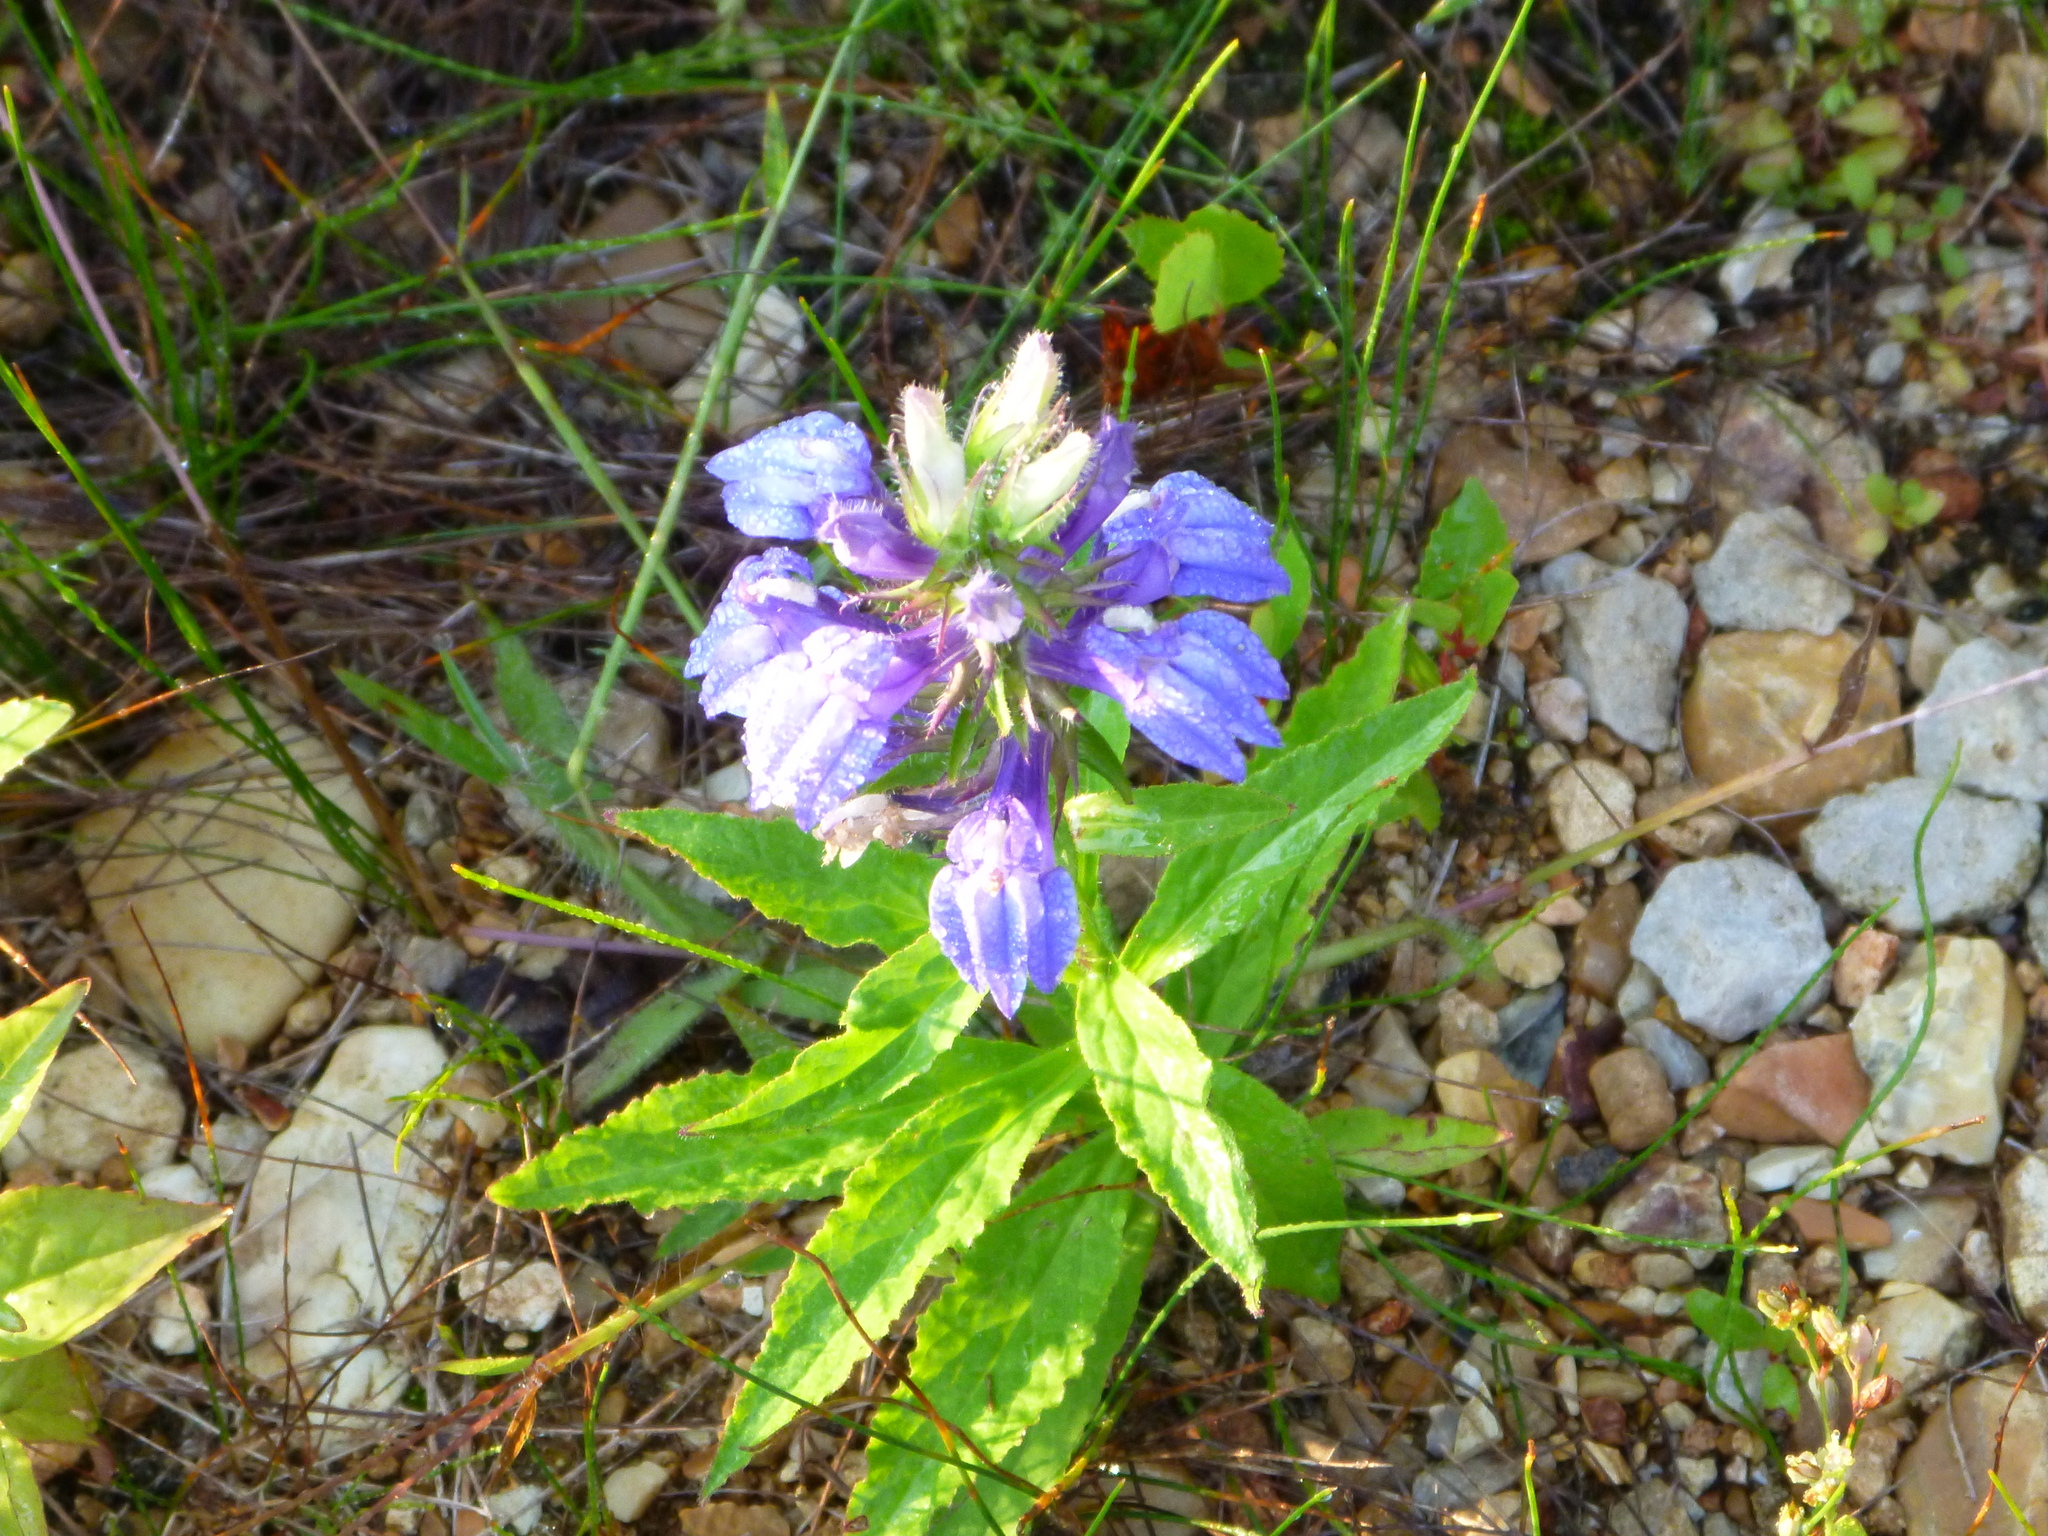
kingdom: Plantae
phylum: Tracheophyta
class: Magnoliopsida
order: Asterales
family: Campanulaceae
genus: Lobelia
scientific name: Lobelia siphilitica
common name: Great lobelia
